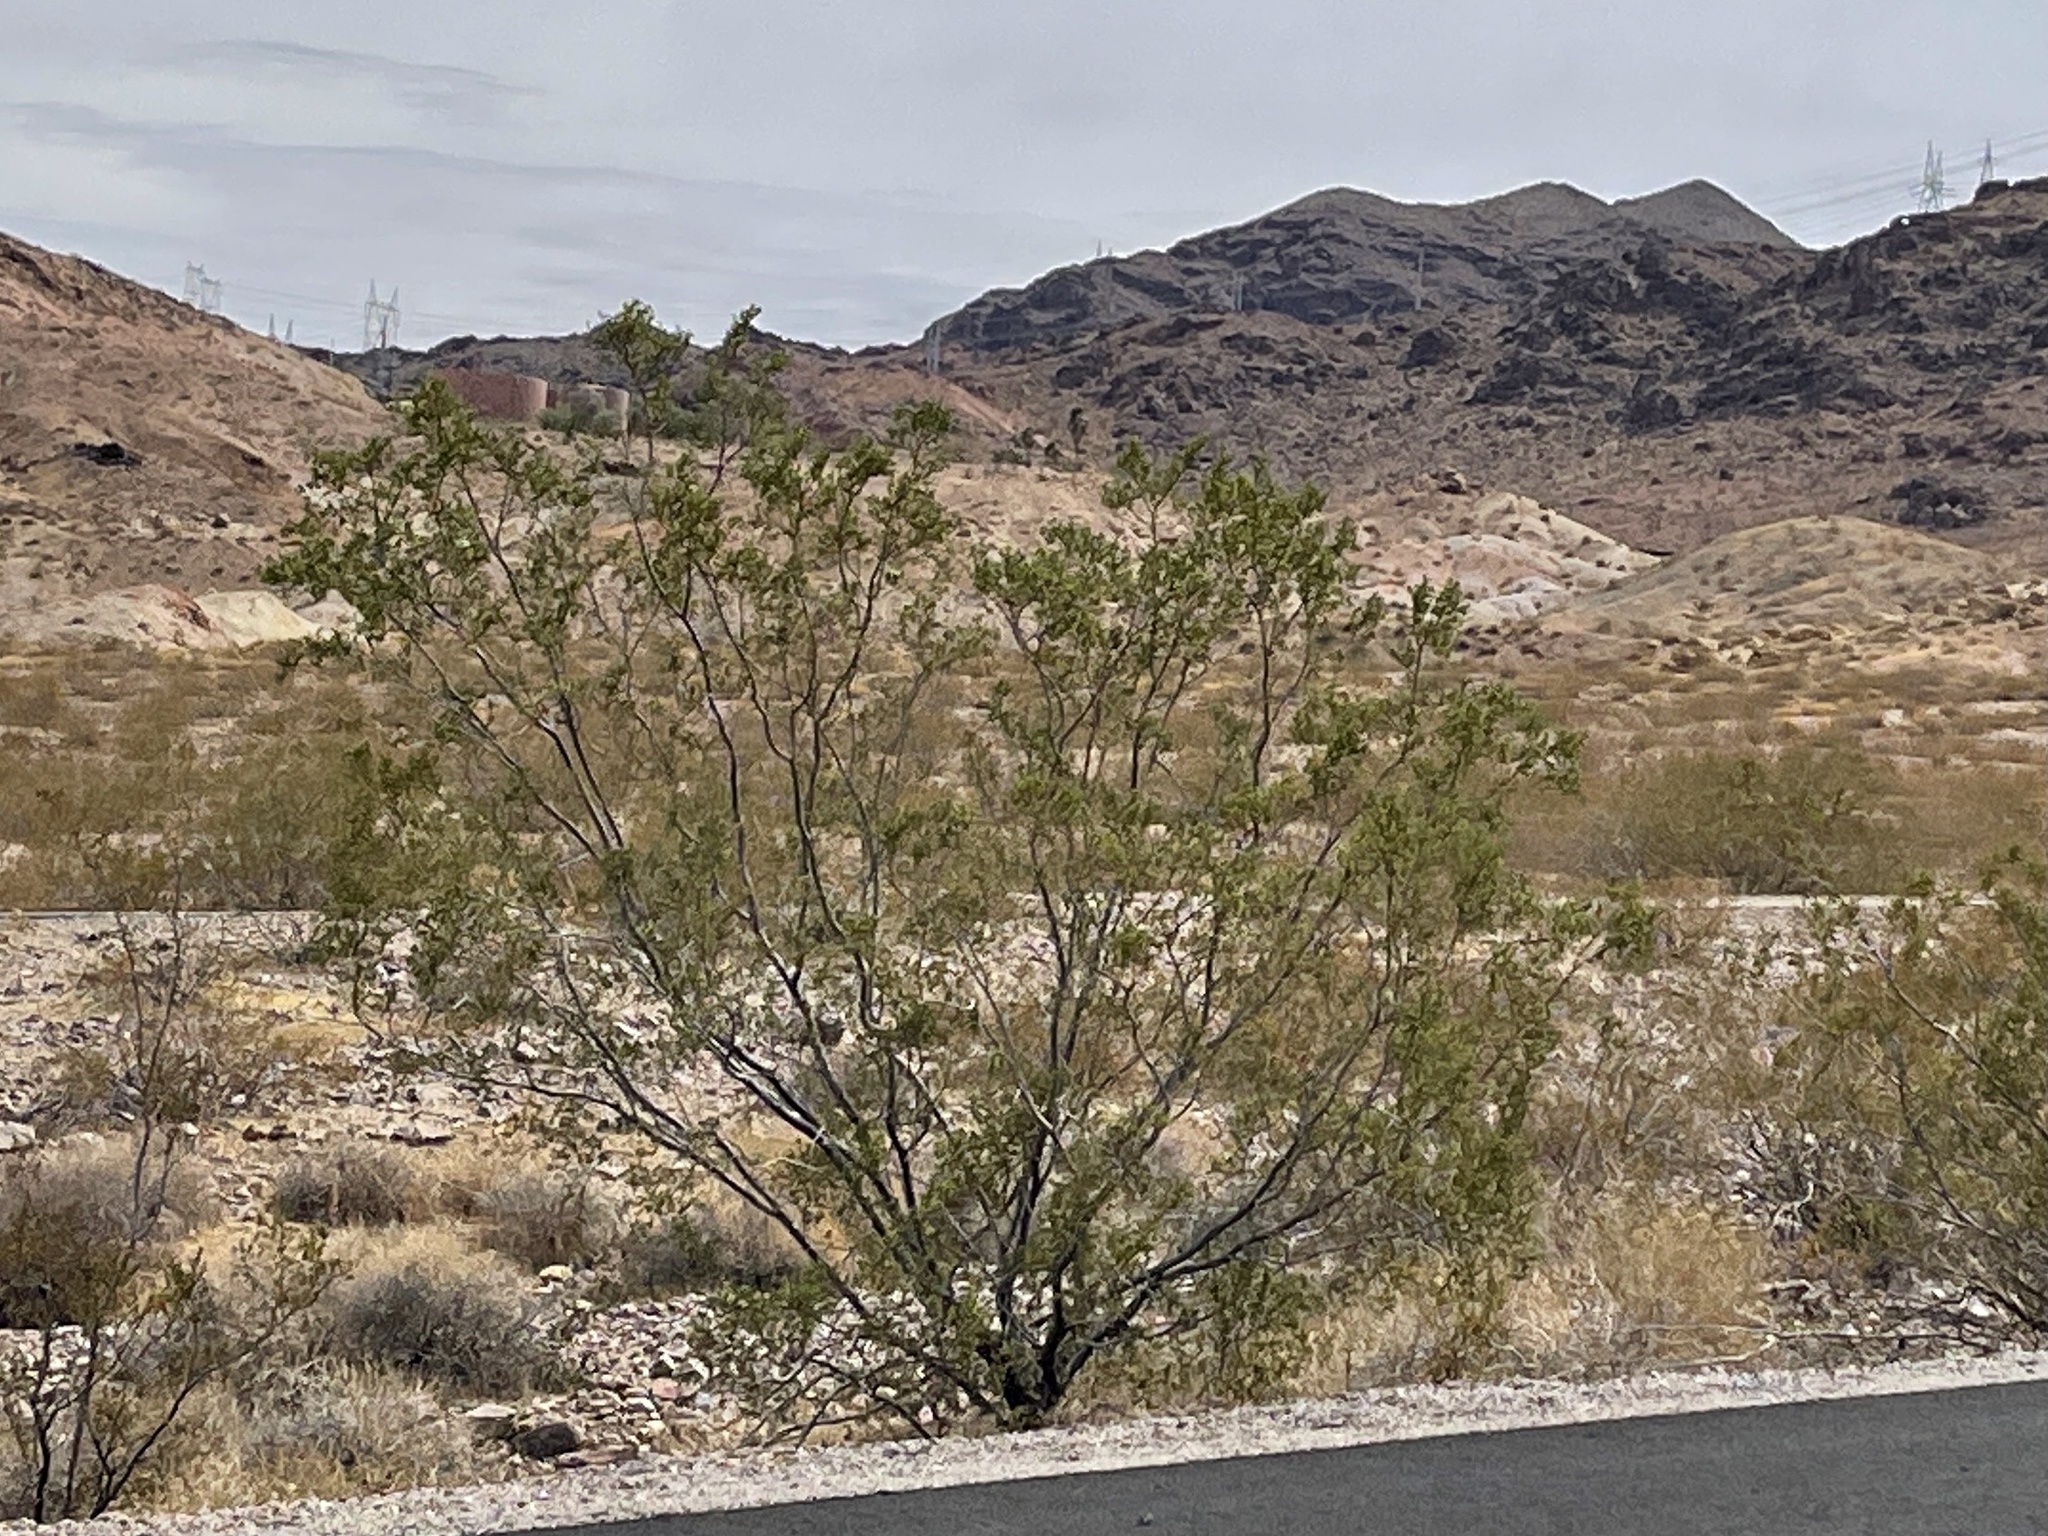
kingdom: Plantae
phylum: Tracheophyta
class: Magnoliopsida
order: Zygophyllales
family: Zygophyllaceae
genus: Larrea
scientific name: Larrea tridentata
